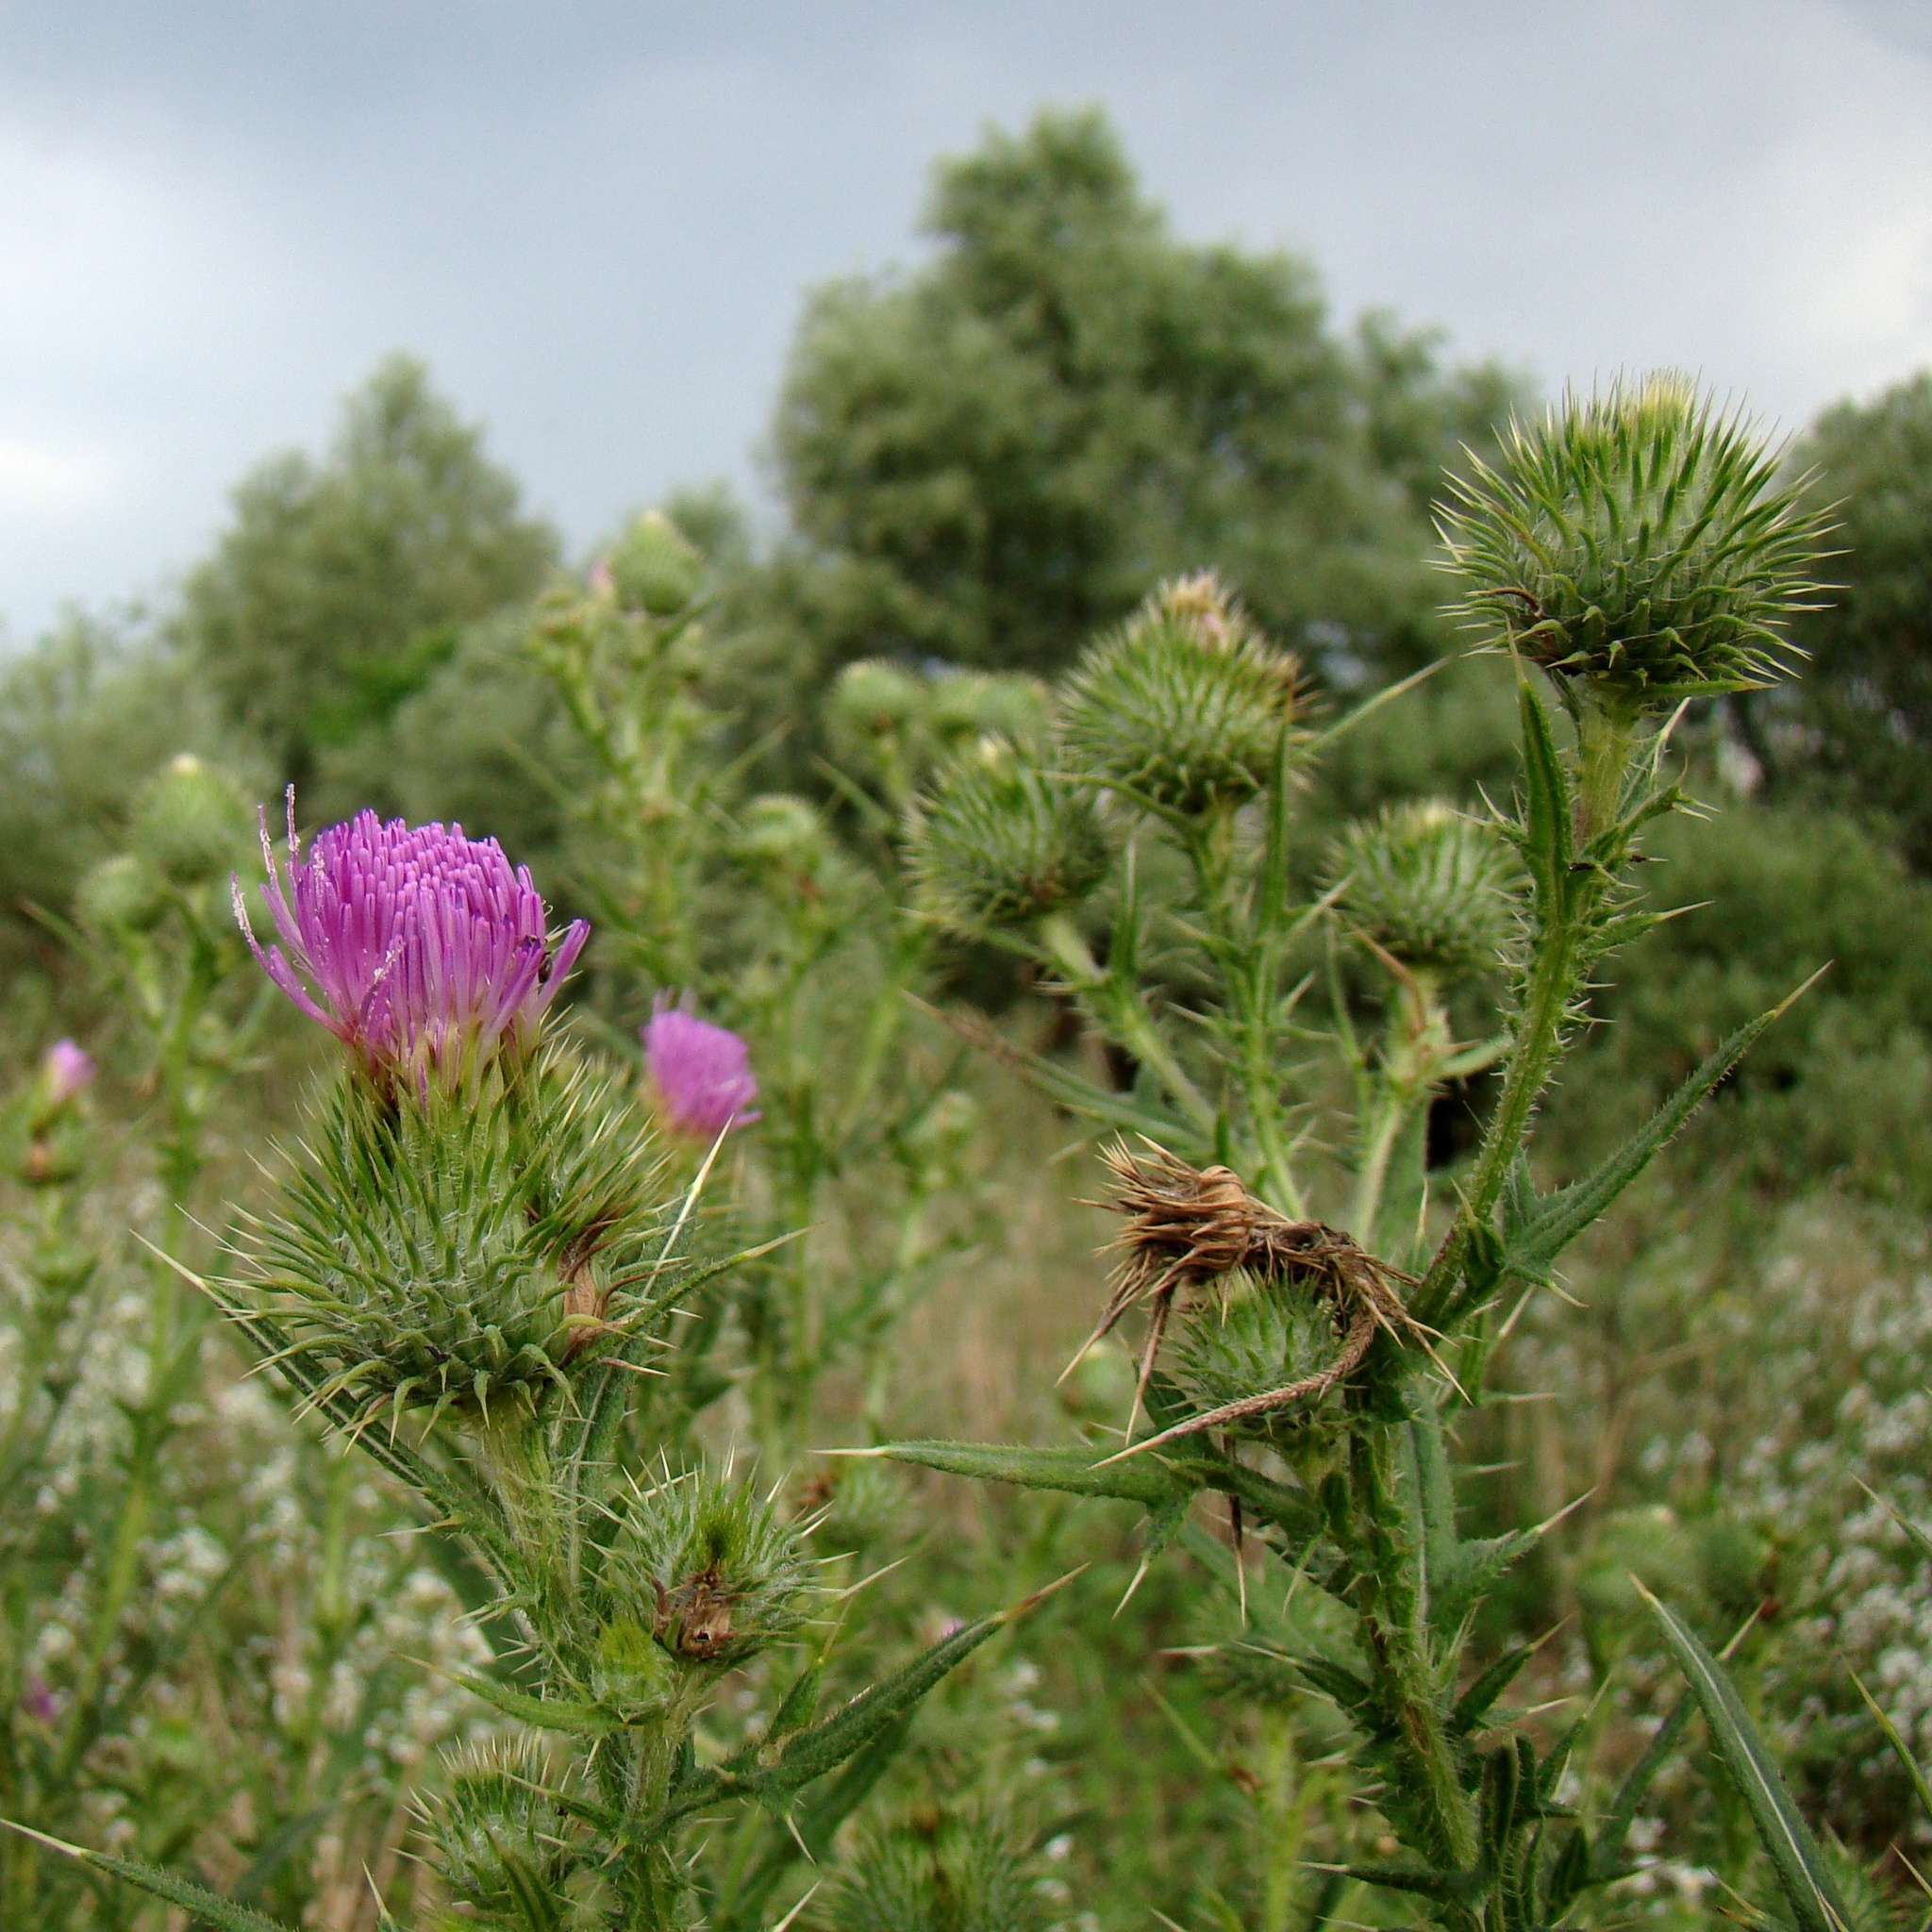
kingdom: Plantae
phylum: Tracheophyta
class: Magnoliopsida
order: Asterales
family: Asteraceae
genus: Cirsium
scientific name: Cirsium vulgare
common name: Bull thistle
